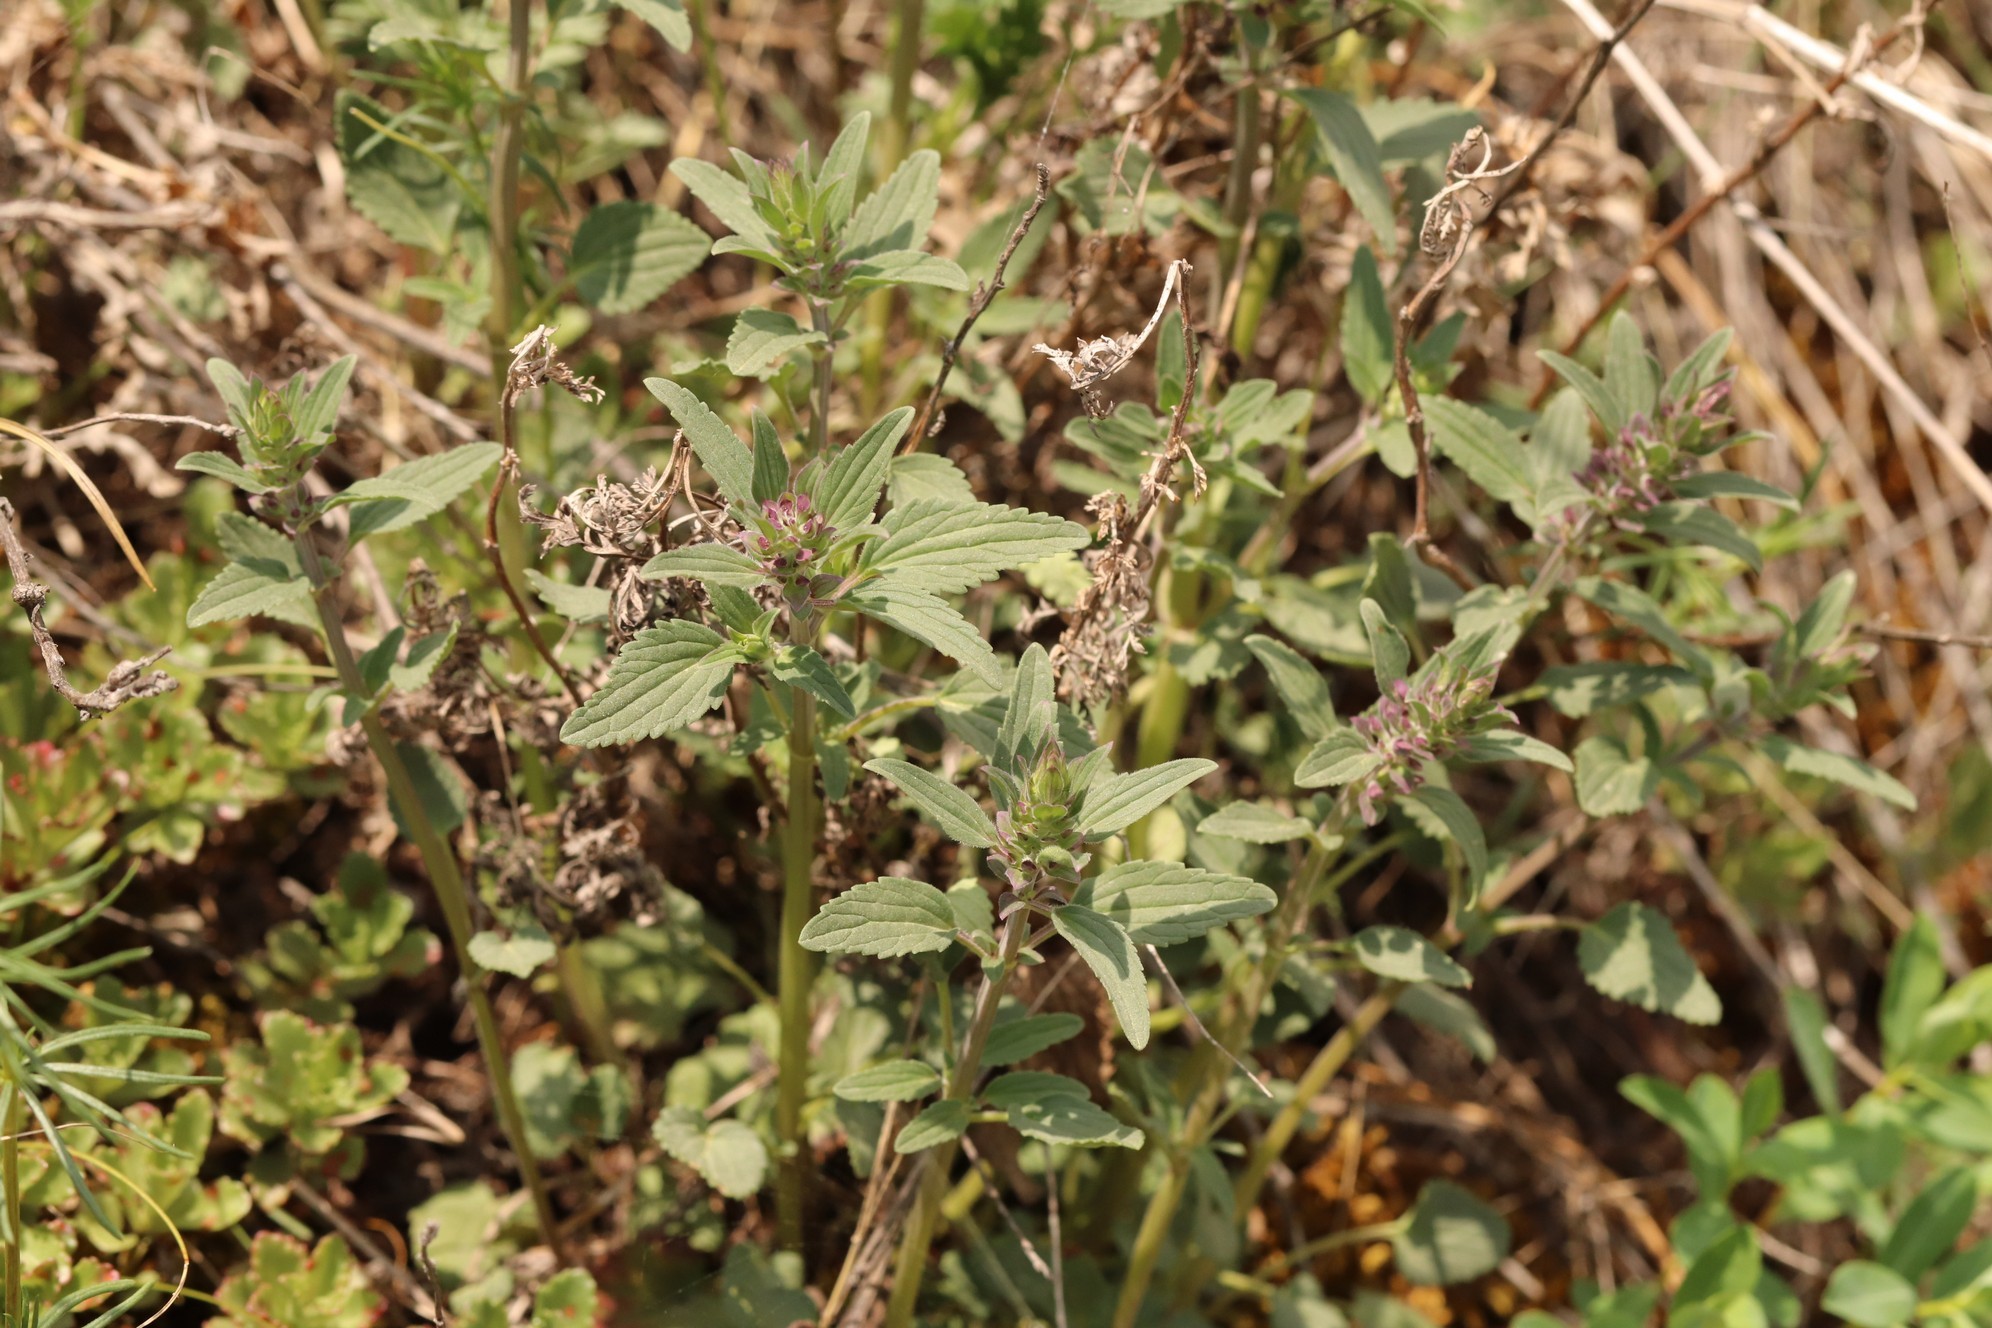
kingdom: Plantae
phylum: Tracheophyta
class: Magnoliopsida
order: Lamiales
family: Lamiaceae
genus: Dracocephalum
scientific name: Dracocephalum thymiflorum
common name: Thymeleaf dragonhead
